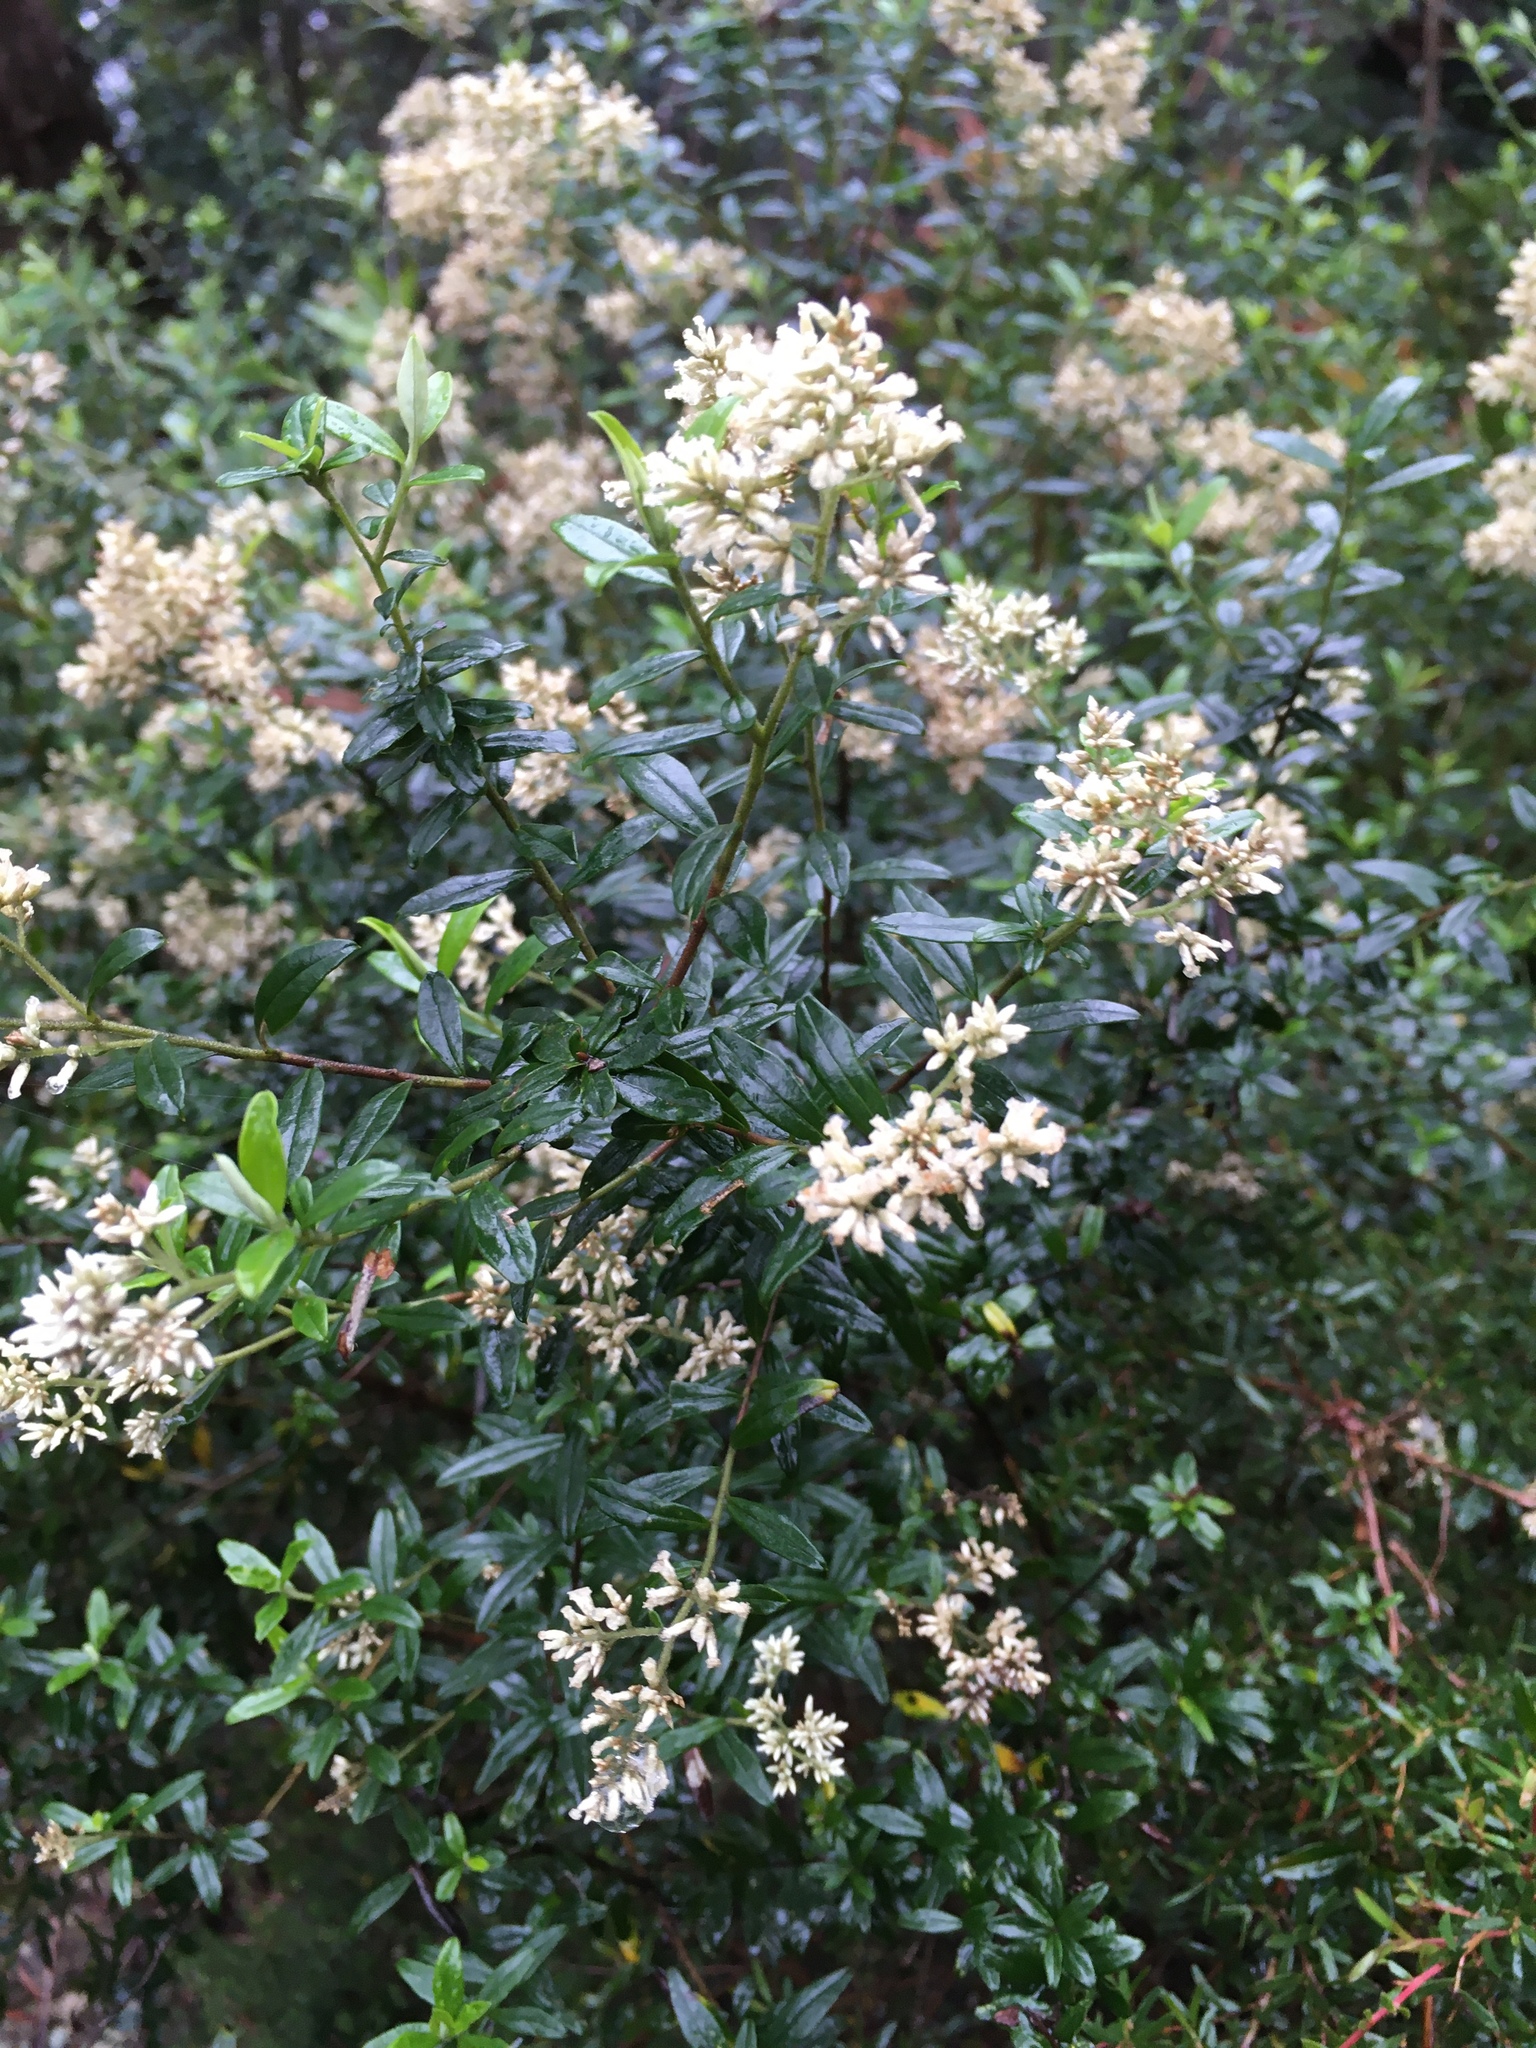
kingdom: Plantae
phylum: Tracheophyta
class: Magnoliopsida
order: Asterales
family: Asteraceae
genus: Cassinia
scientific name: Cassinia subtropica
